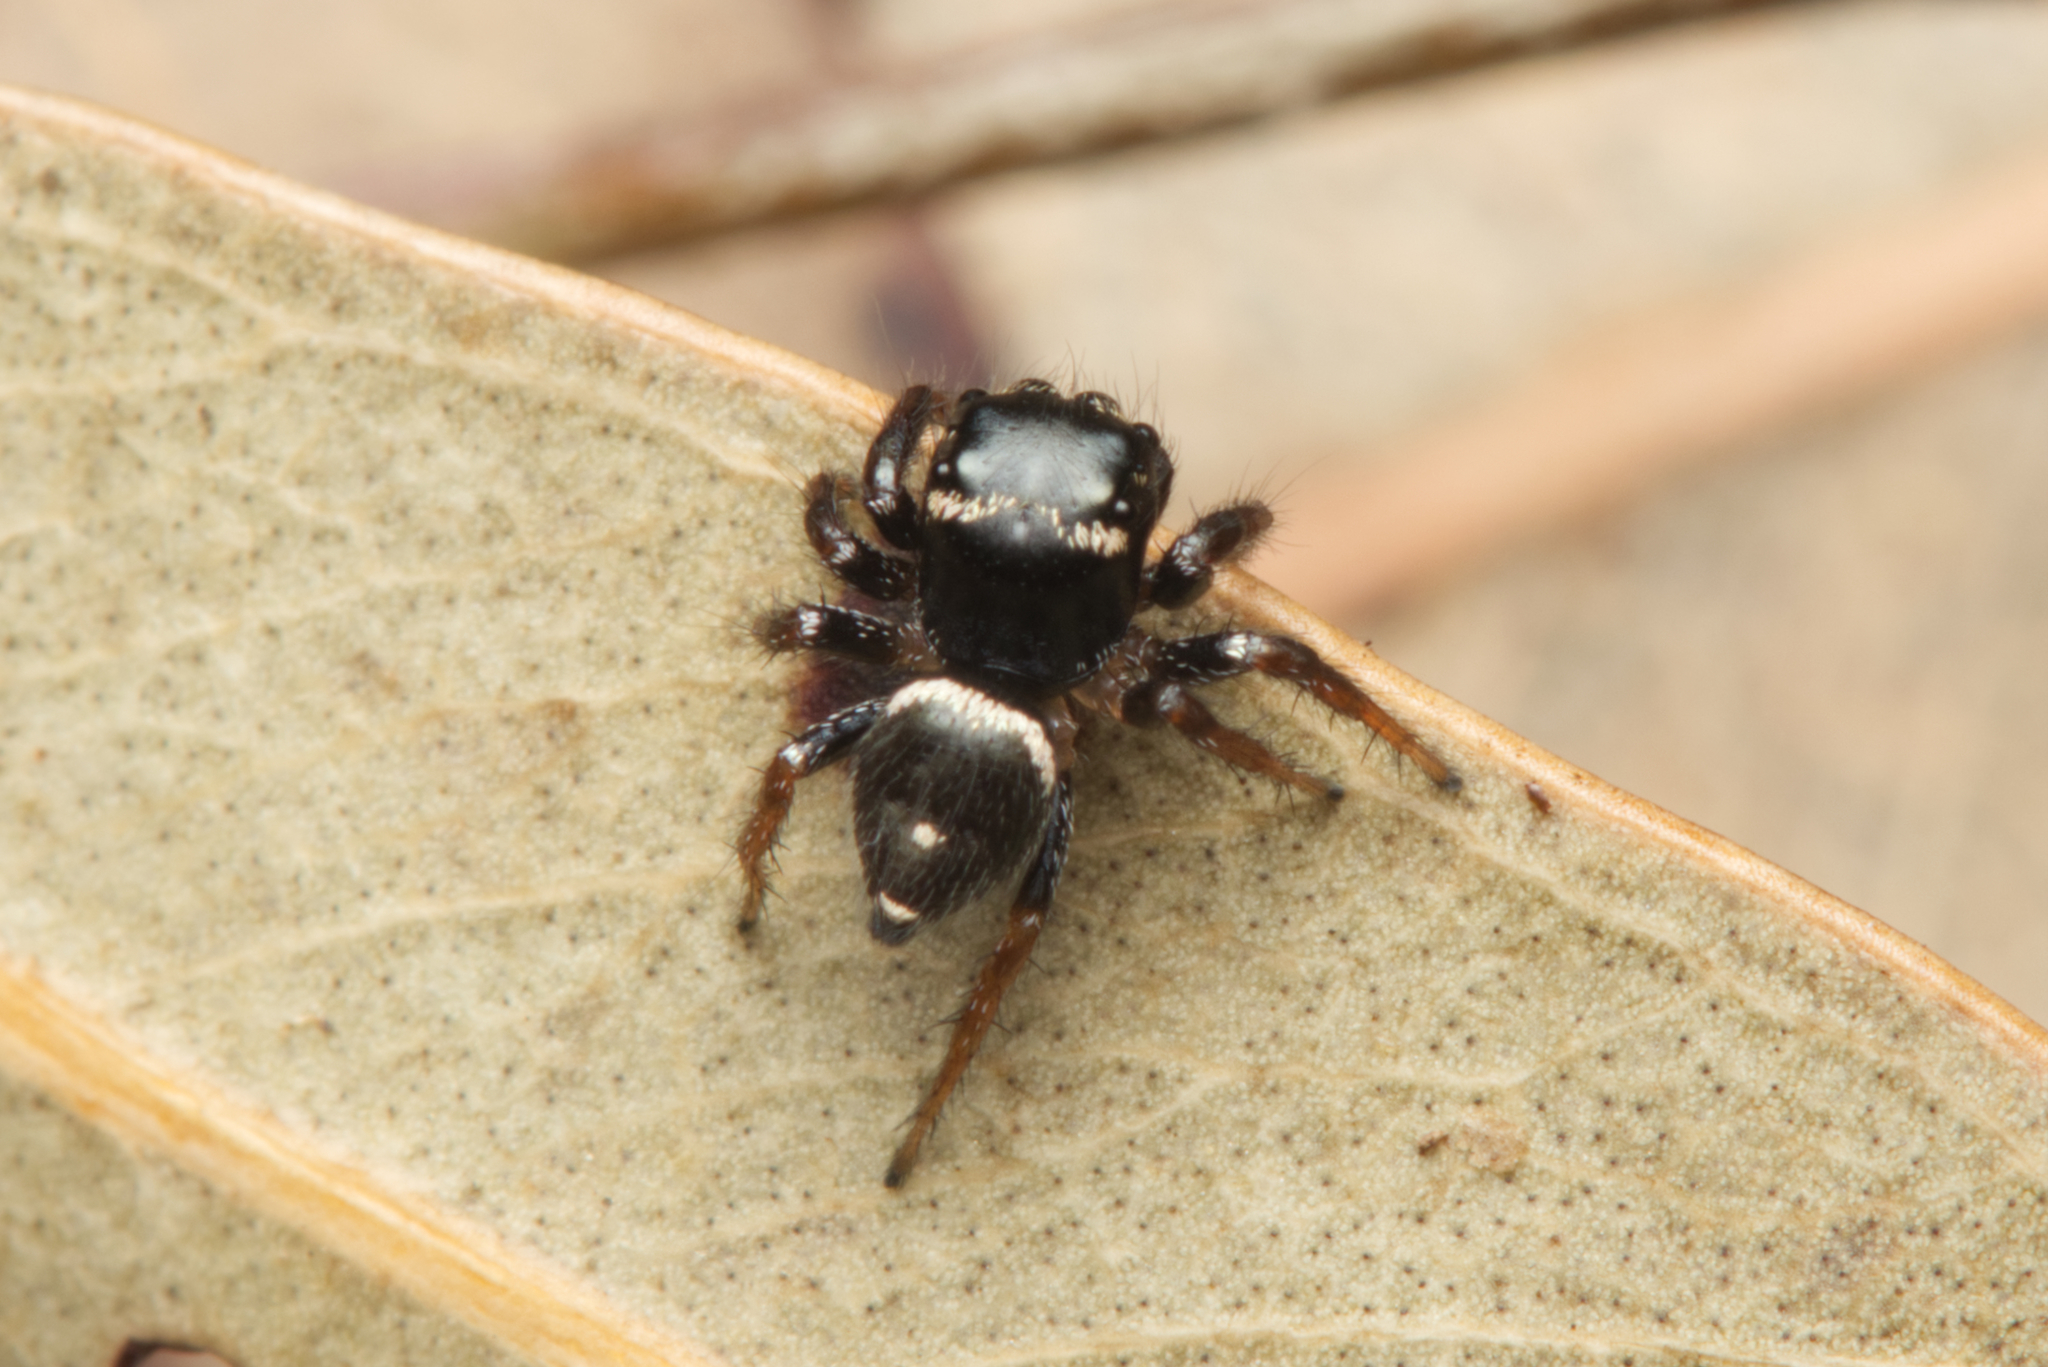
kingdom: Animalia
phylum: Arthropoda
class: Arachnida
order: Araneae
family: Salticidae
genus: Zenodorus
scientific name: Zenodorus orbiculatus
